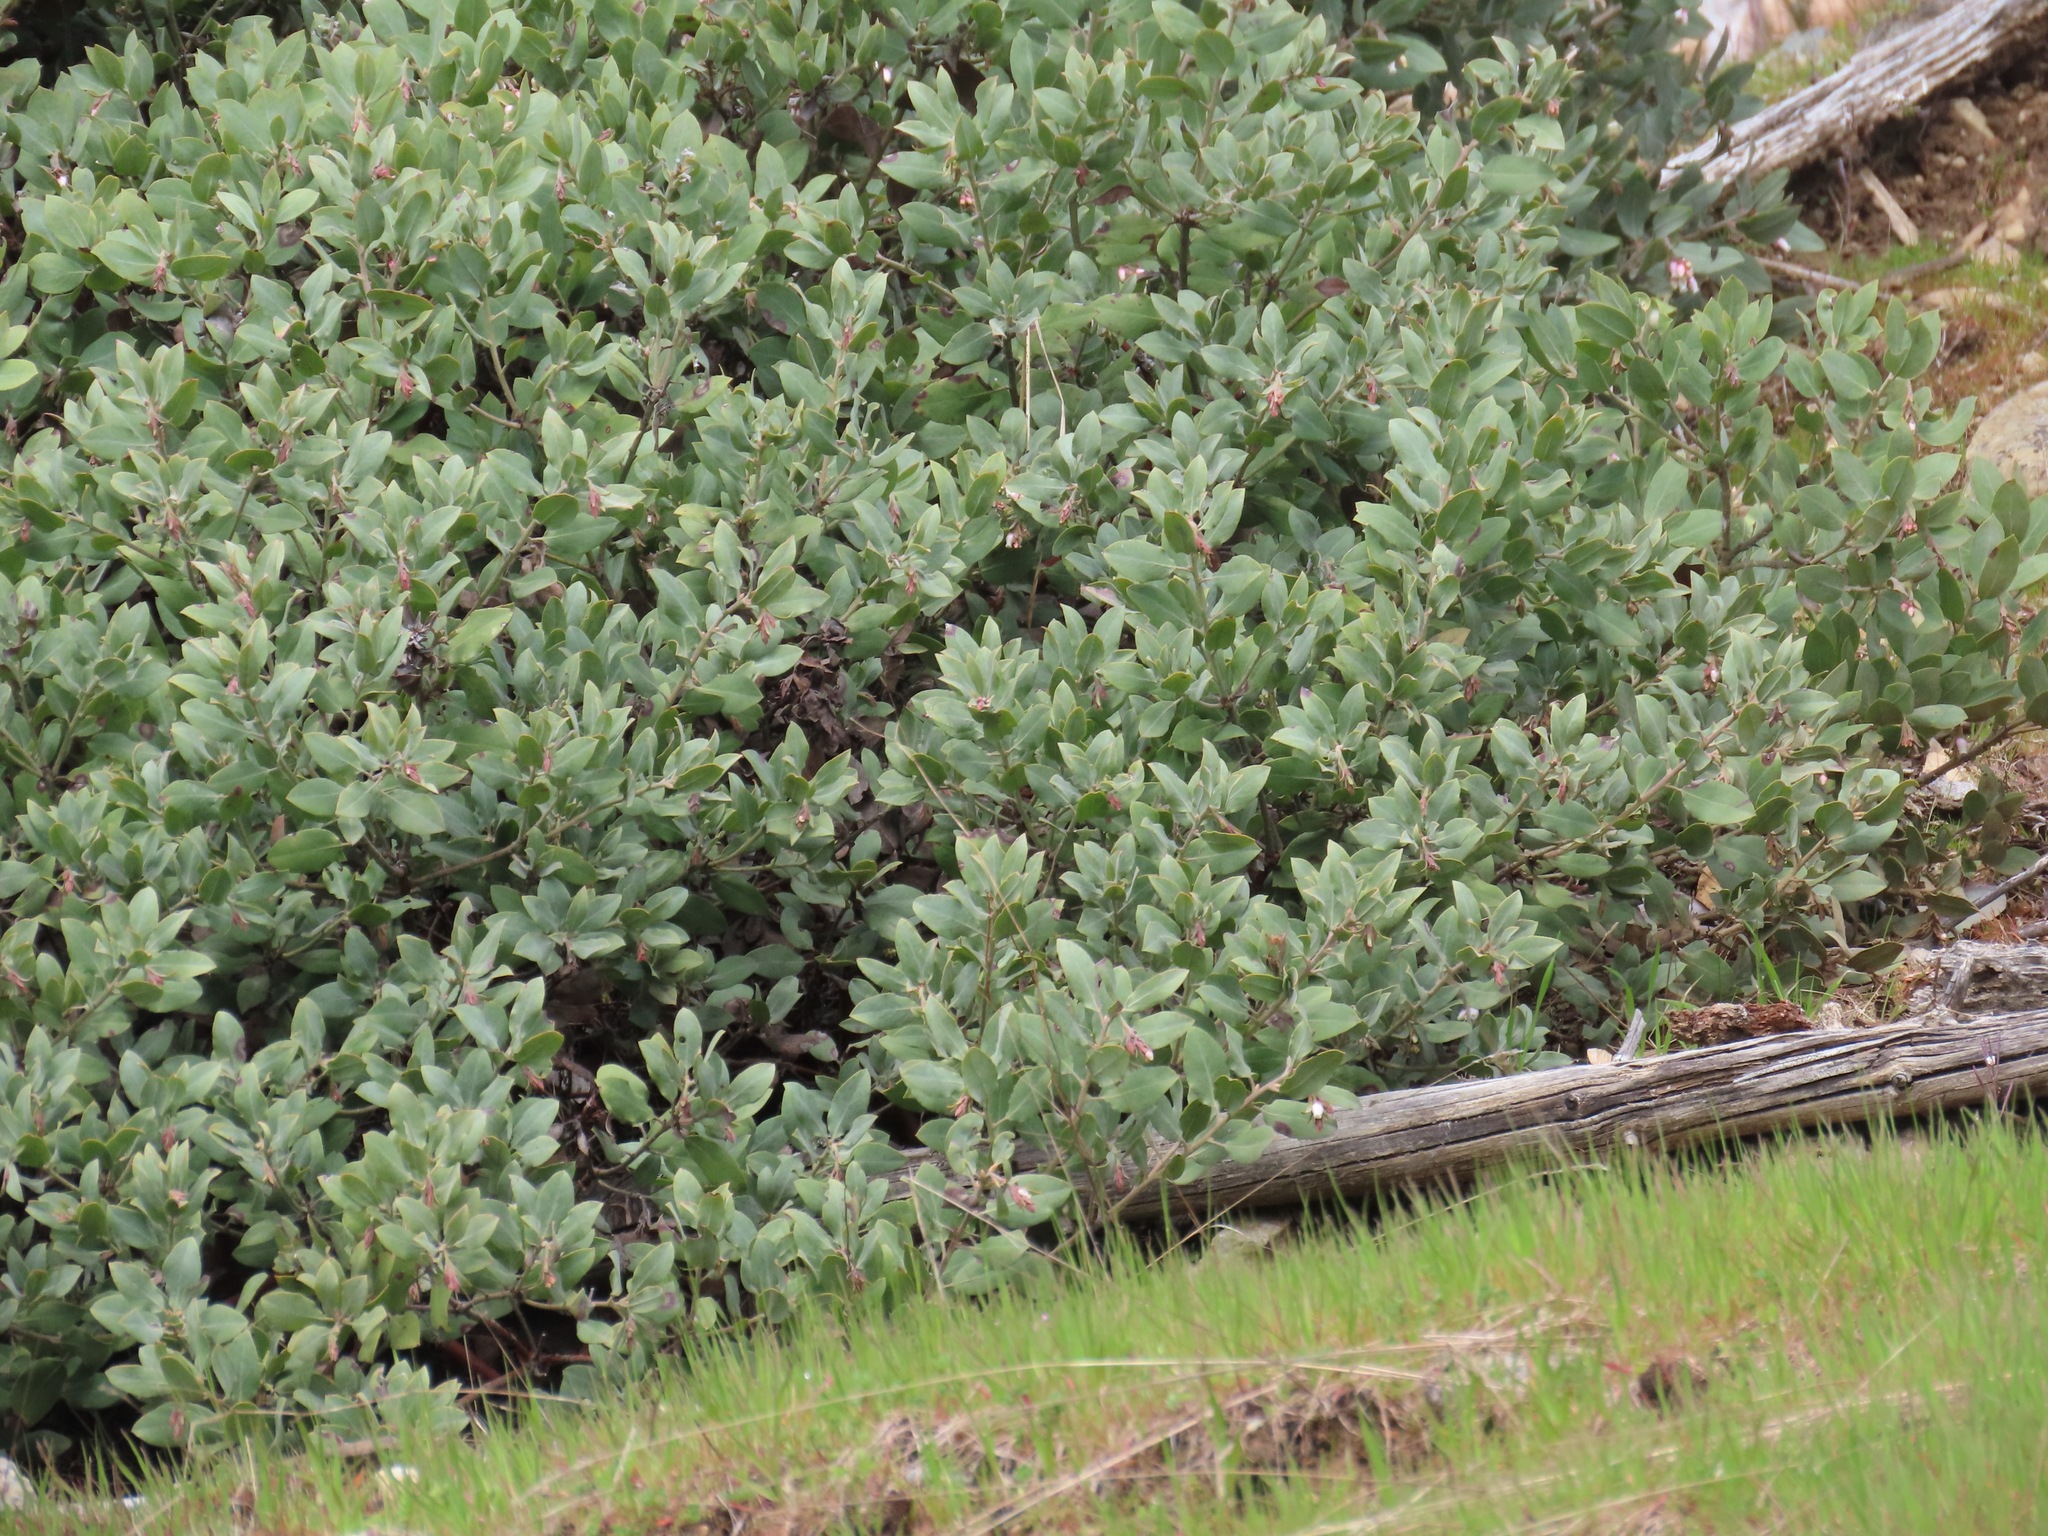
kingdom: Plantae
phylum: Tracheophyta
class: Magnoliopsida
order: Ericales
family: Ericaceae
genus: Arctostaphylos
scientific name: Arctostaphylos columbiana
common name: Bristly bearberry
